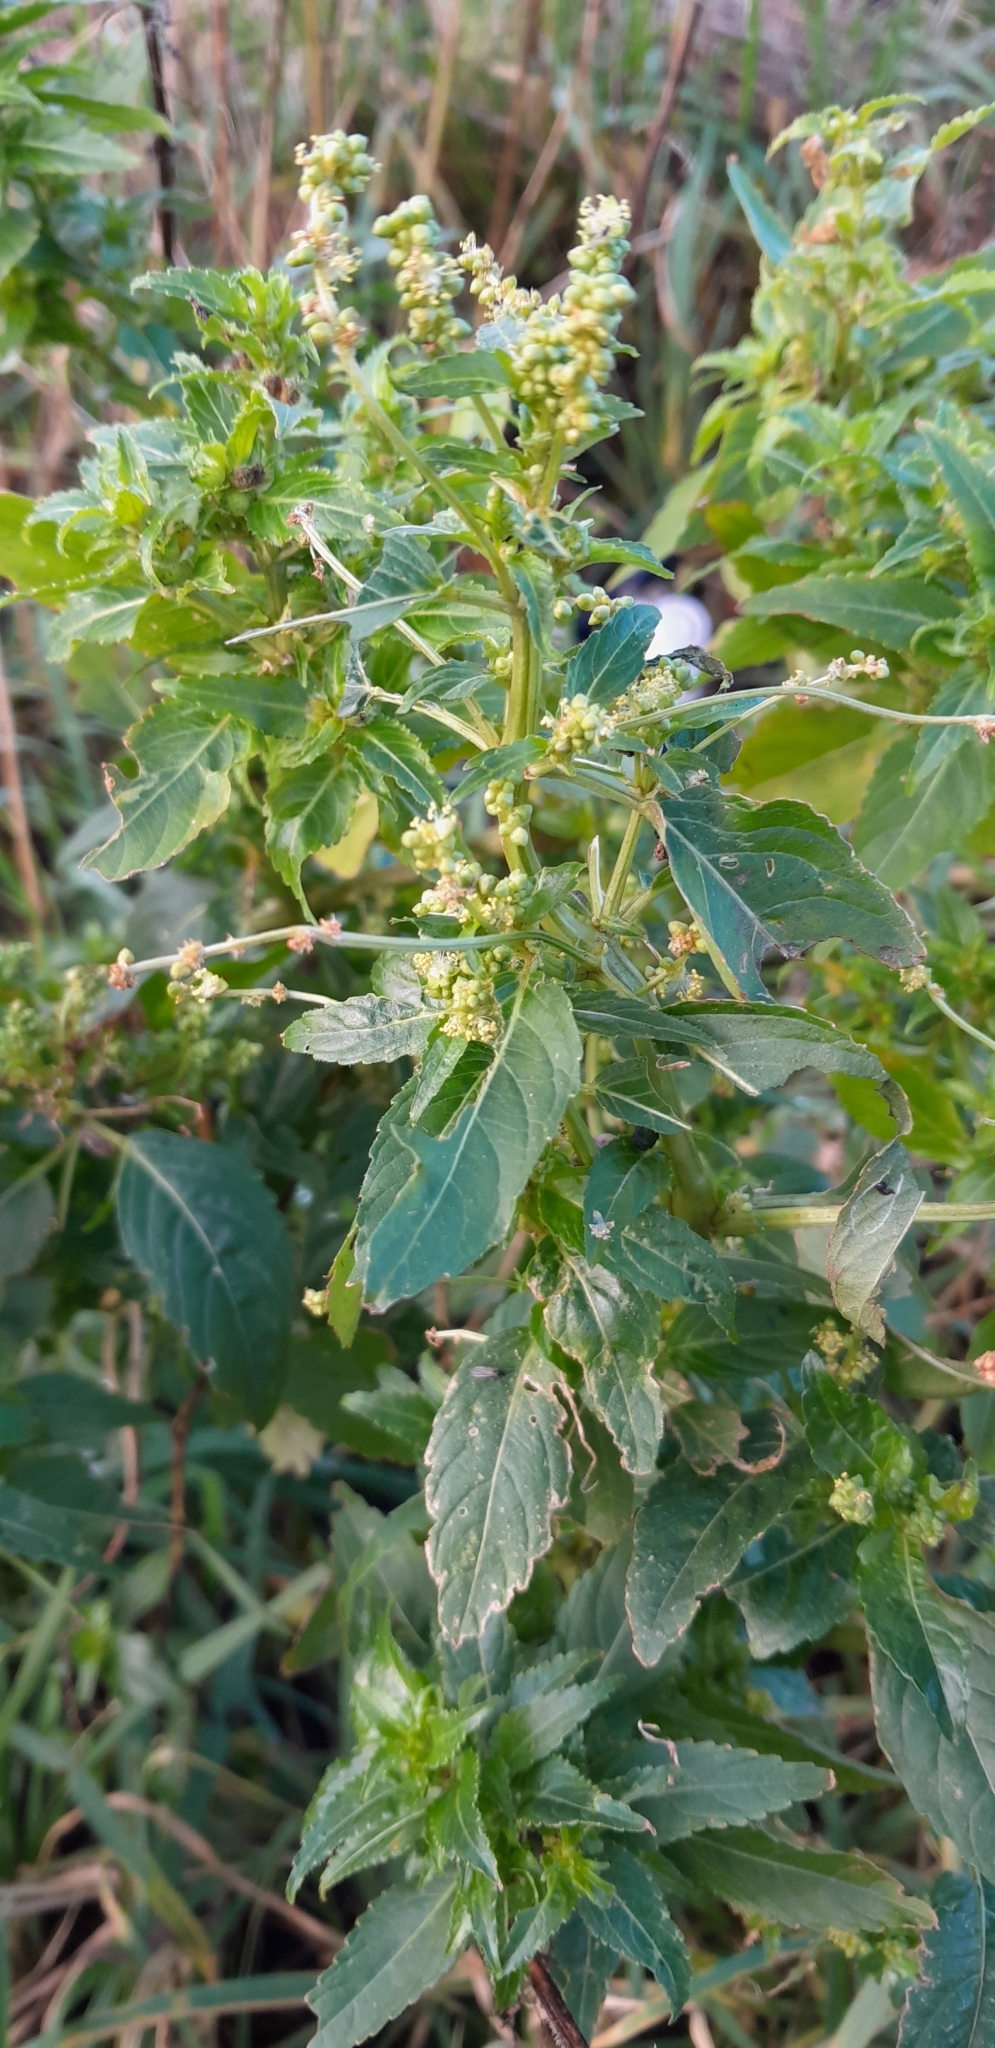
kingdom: Plantae
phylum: Tracheophyta
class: Magnoliopsida
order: Malpighiales
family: Euphorbiaceae
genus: Mercurialis
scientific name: Mercurialis annua
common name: Annual mercury
